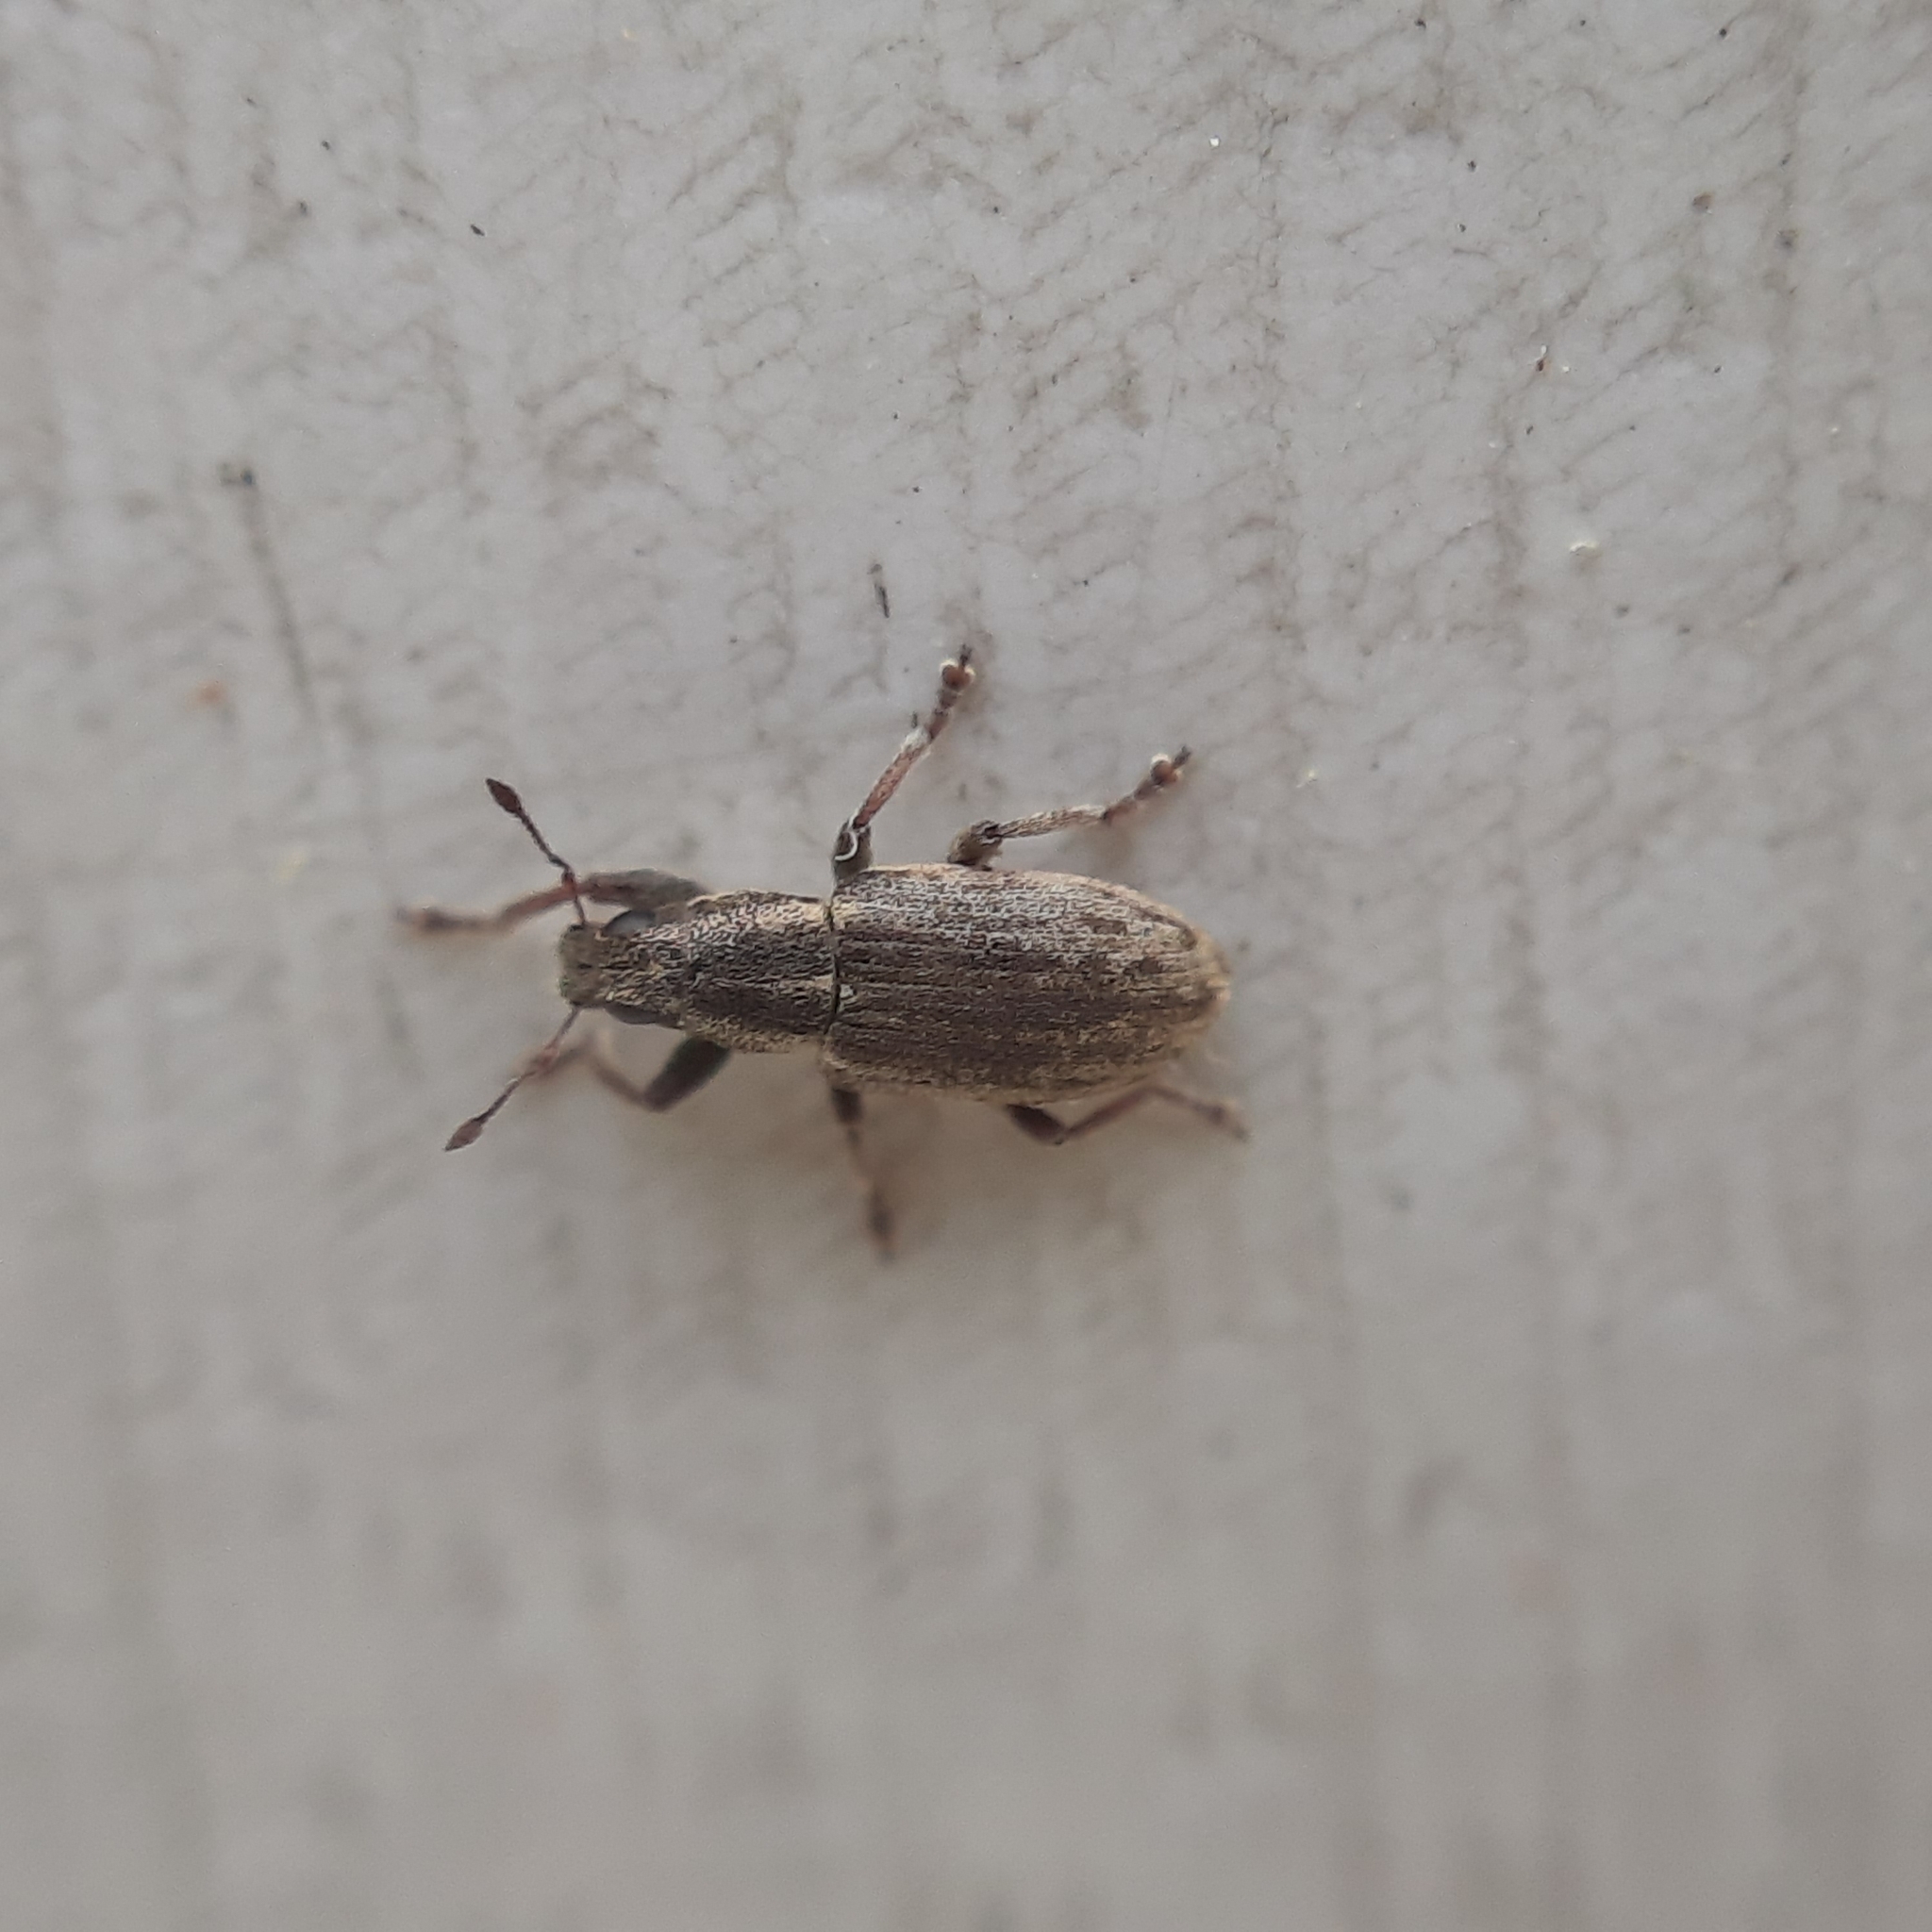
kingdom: Animalia
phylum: Arthropoda
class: Insecta
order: Coleoptera
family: Curculionidae
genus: Sitona
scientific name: Sitona humeralis
